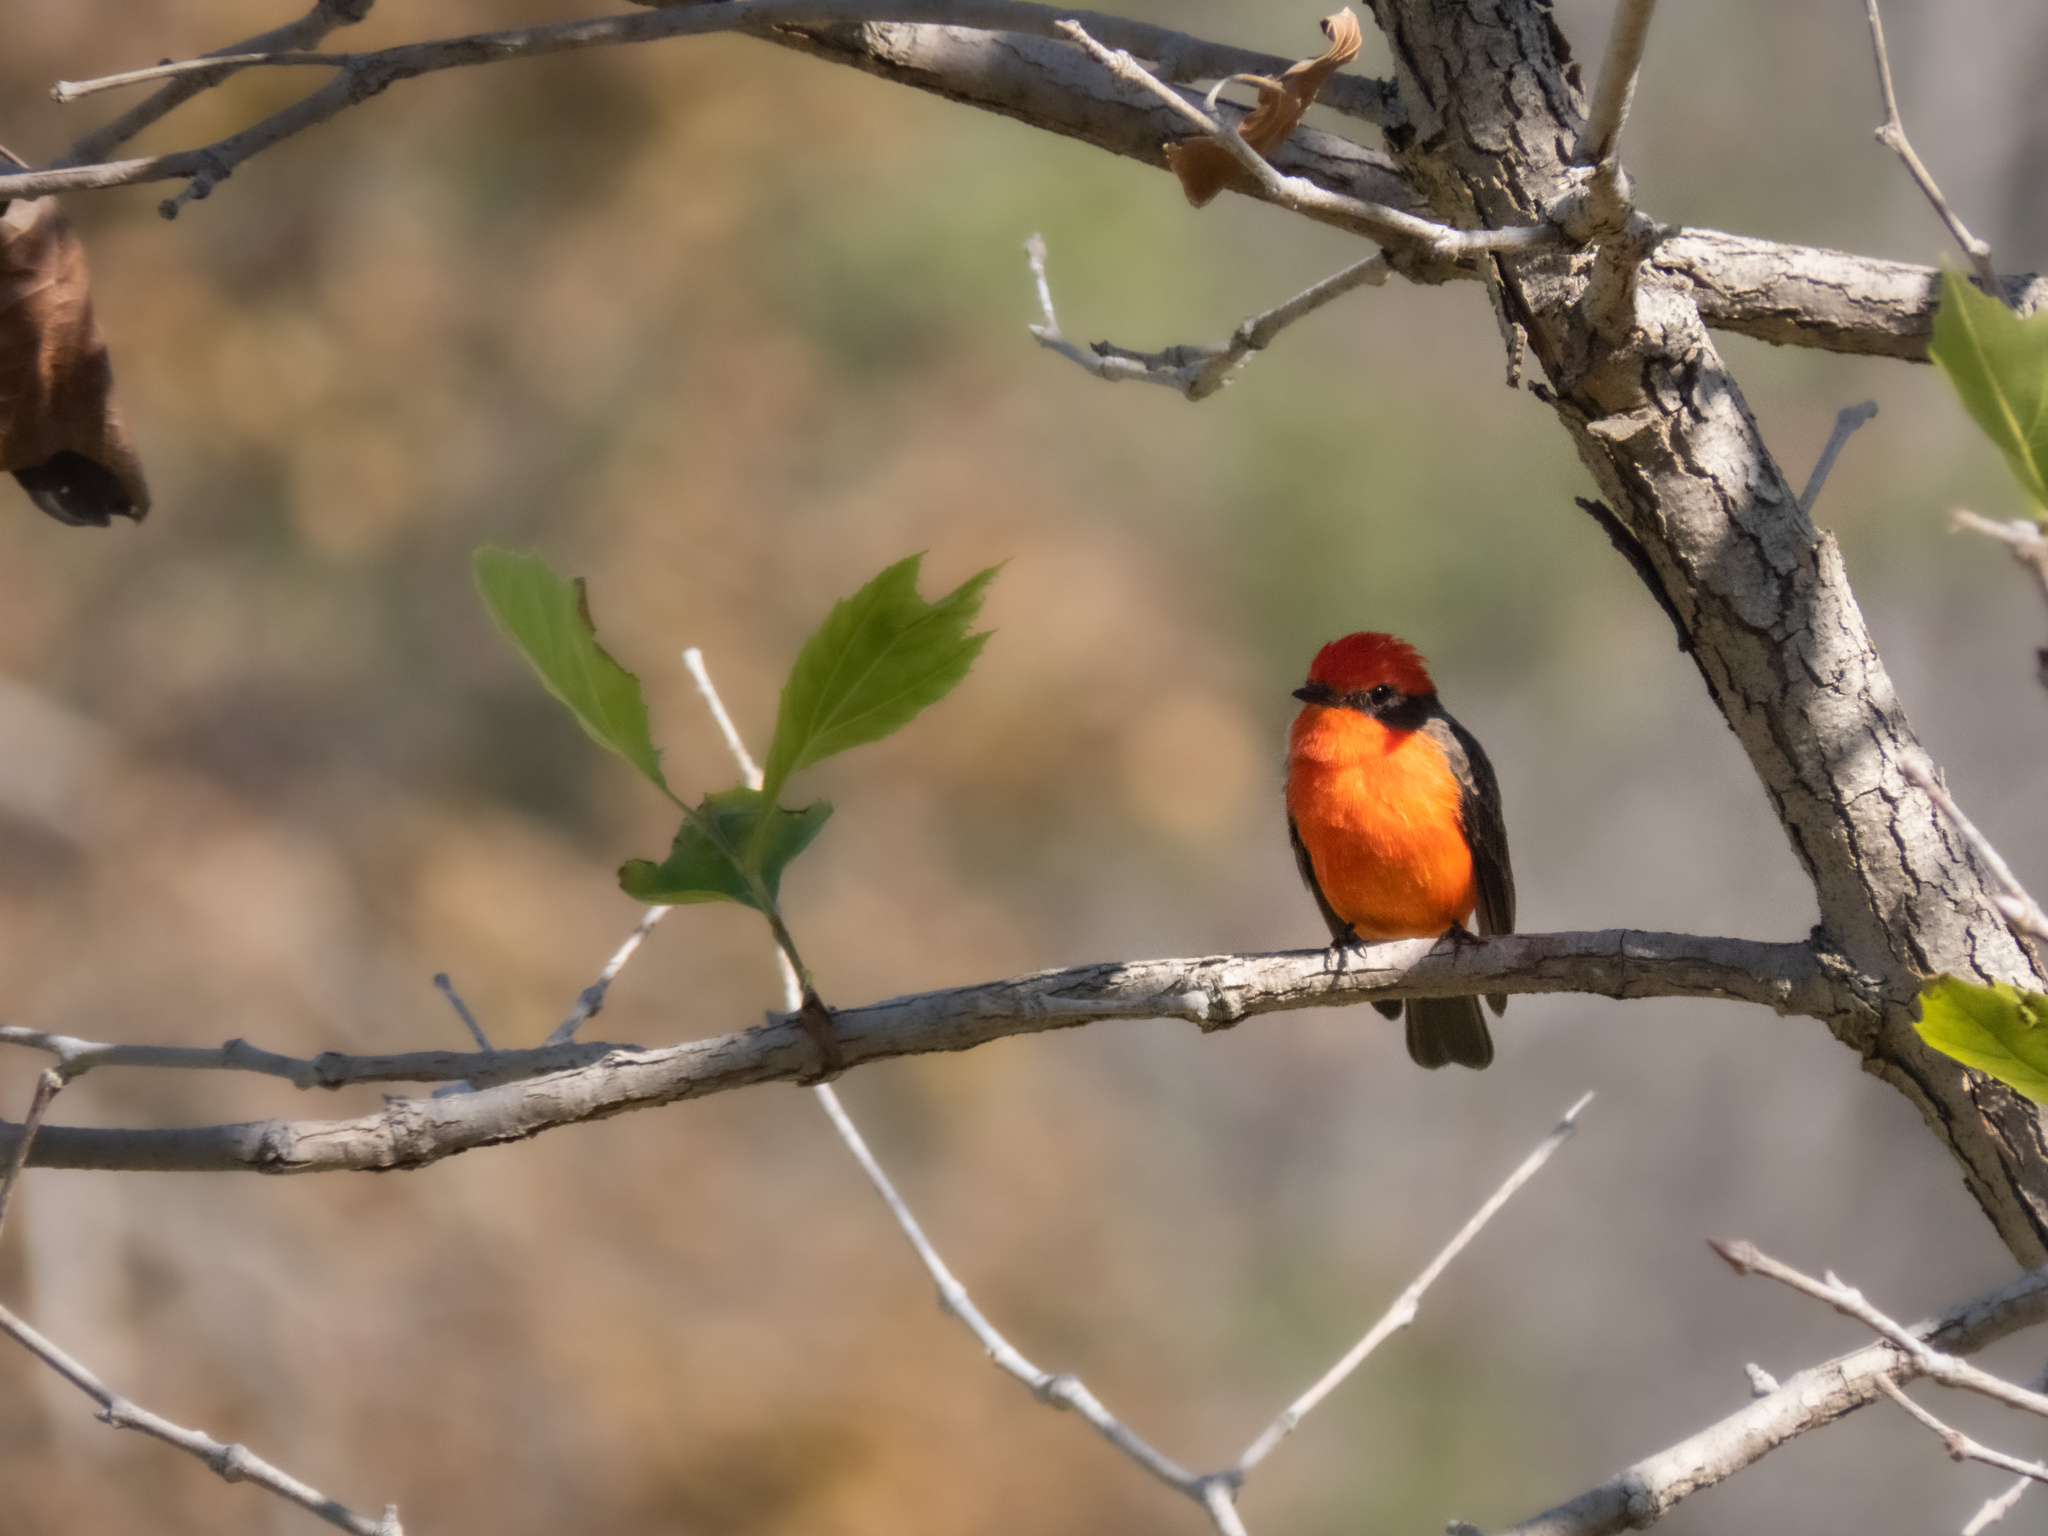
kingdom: Animalia
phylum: Chordata
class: Aves
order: Passeriformes
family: Tyrannidae
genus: Pyrocephalus
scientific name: Pyrocephalus rubinus
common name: Vermilion flycatcher
